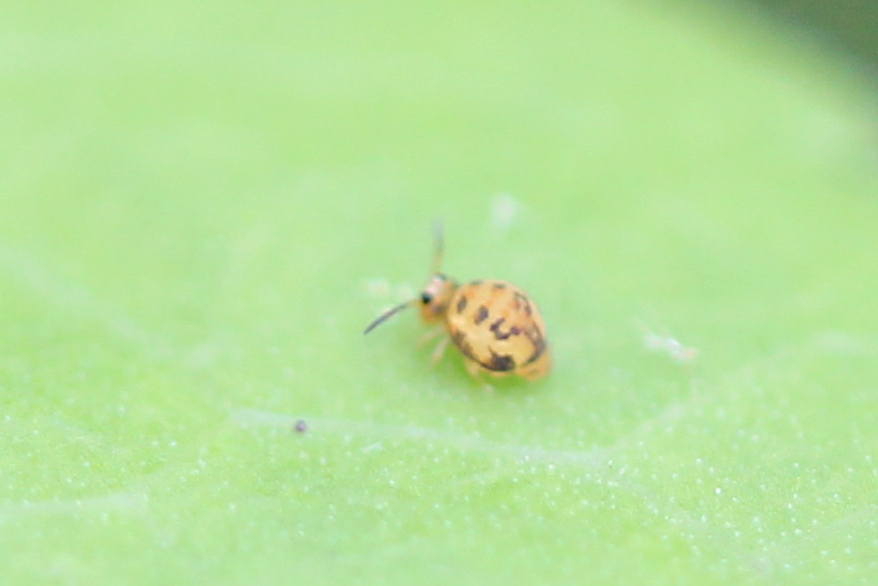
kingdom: Animalia
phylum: Arthropoda
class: Collembola
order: Symphypleona
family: Katiannidae
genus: Sminthurinus
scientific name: Sminthurinus henshawi
